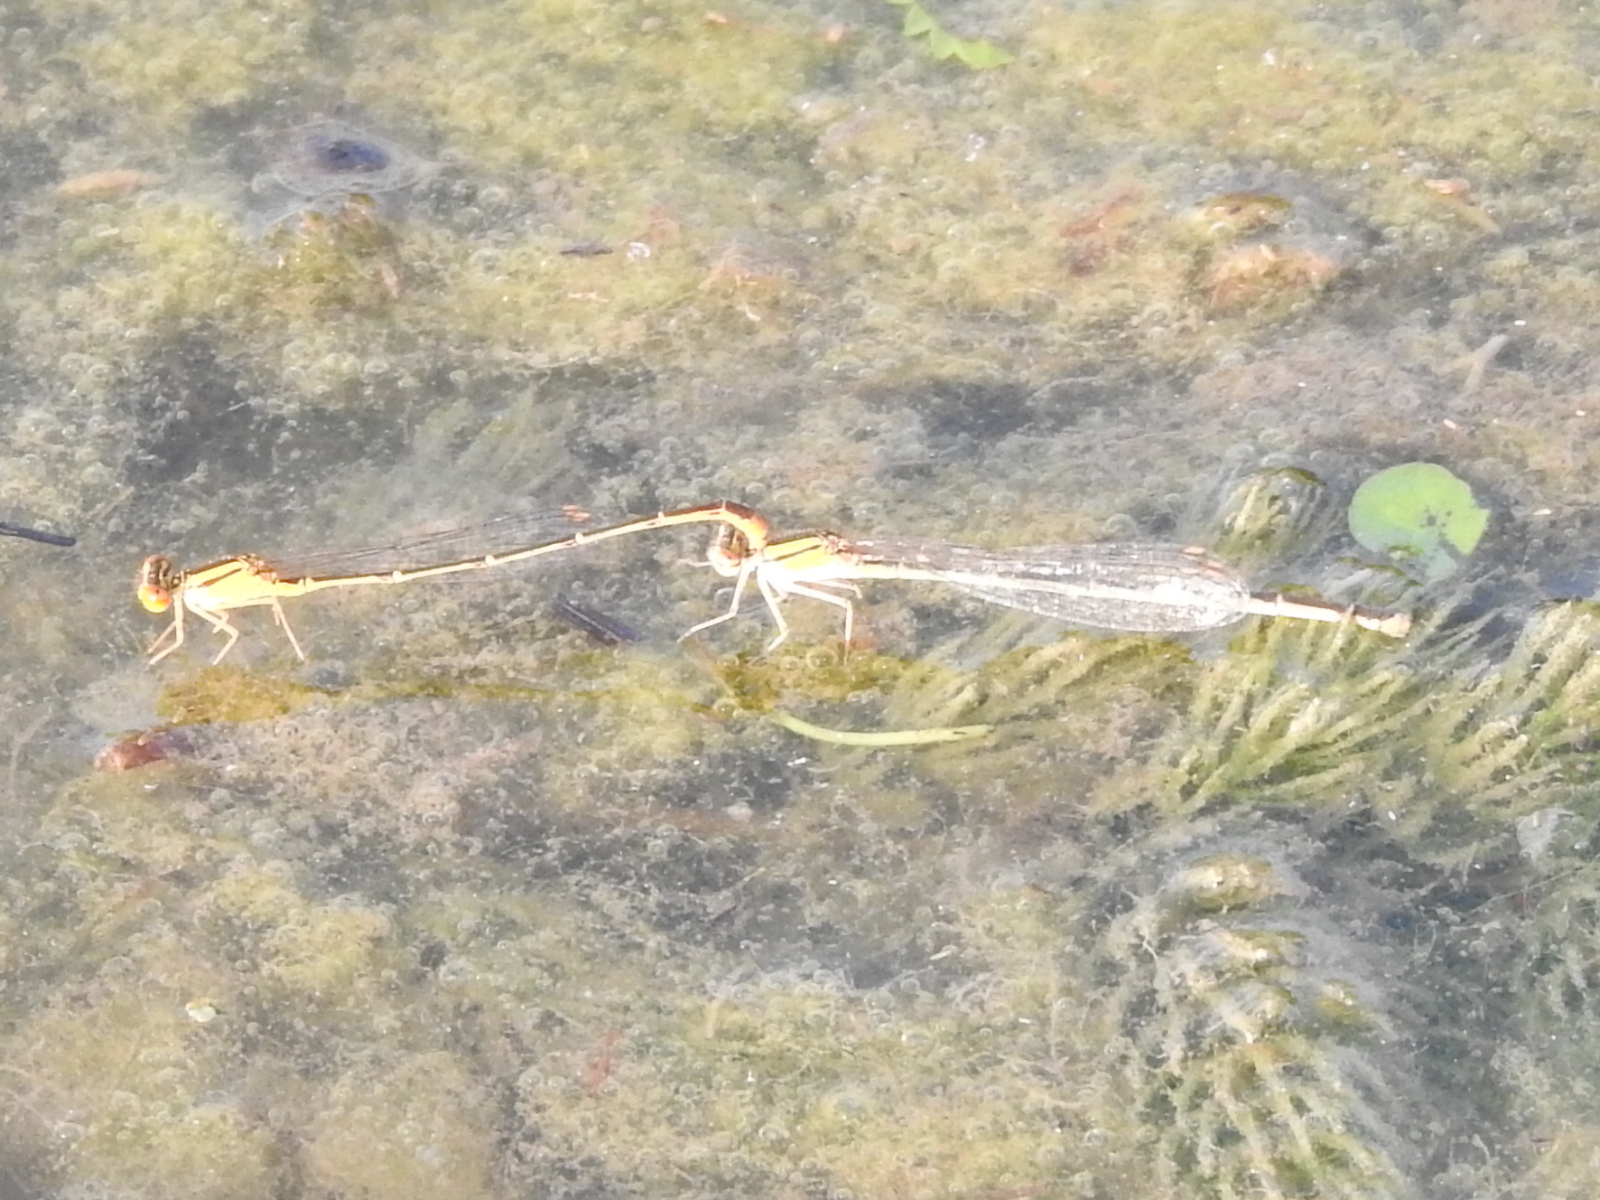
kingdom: Animalia
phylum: Arthropoda
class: Insecta
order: Odonata
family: Coenagrionidae
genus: Enallagma
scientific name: Enallagma signatum
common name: Orange bluet
